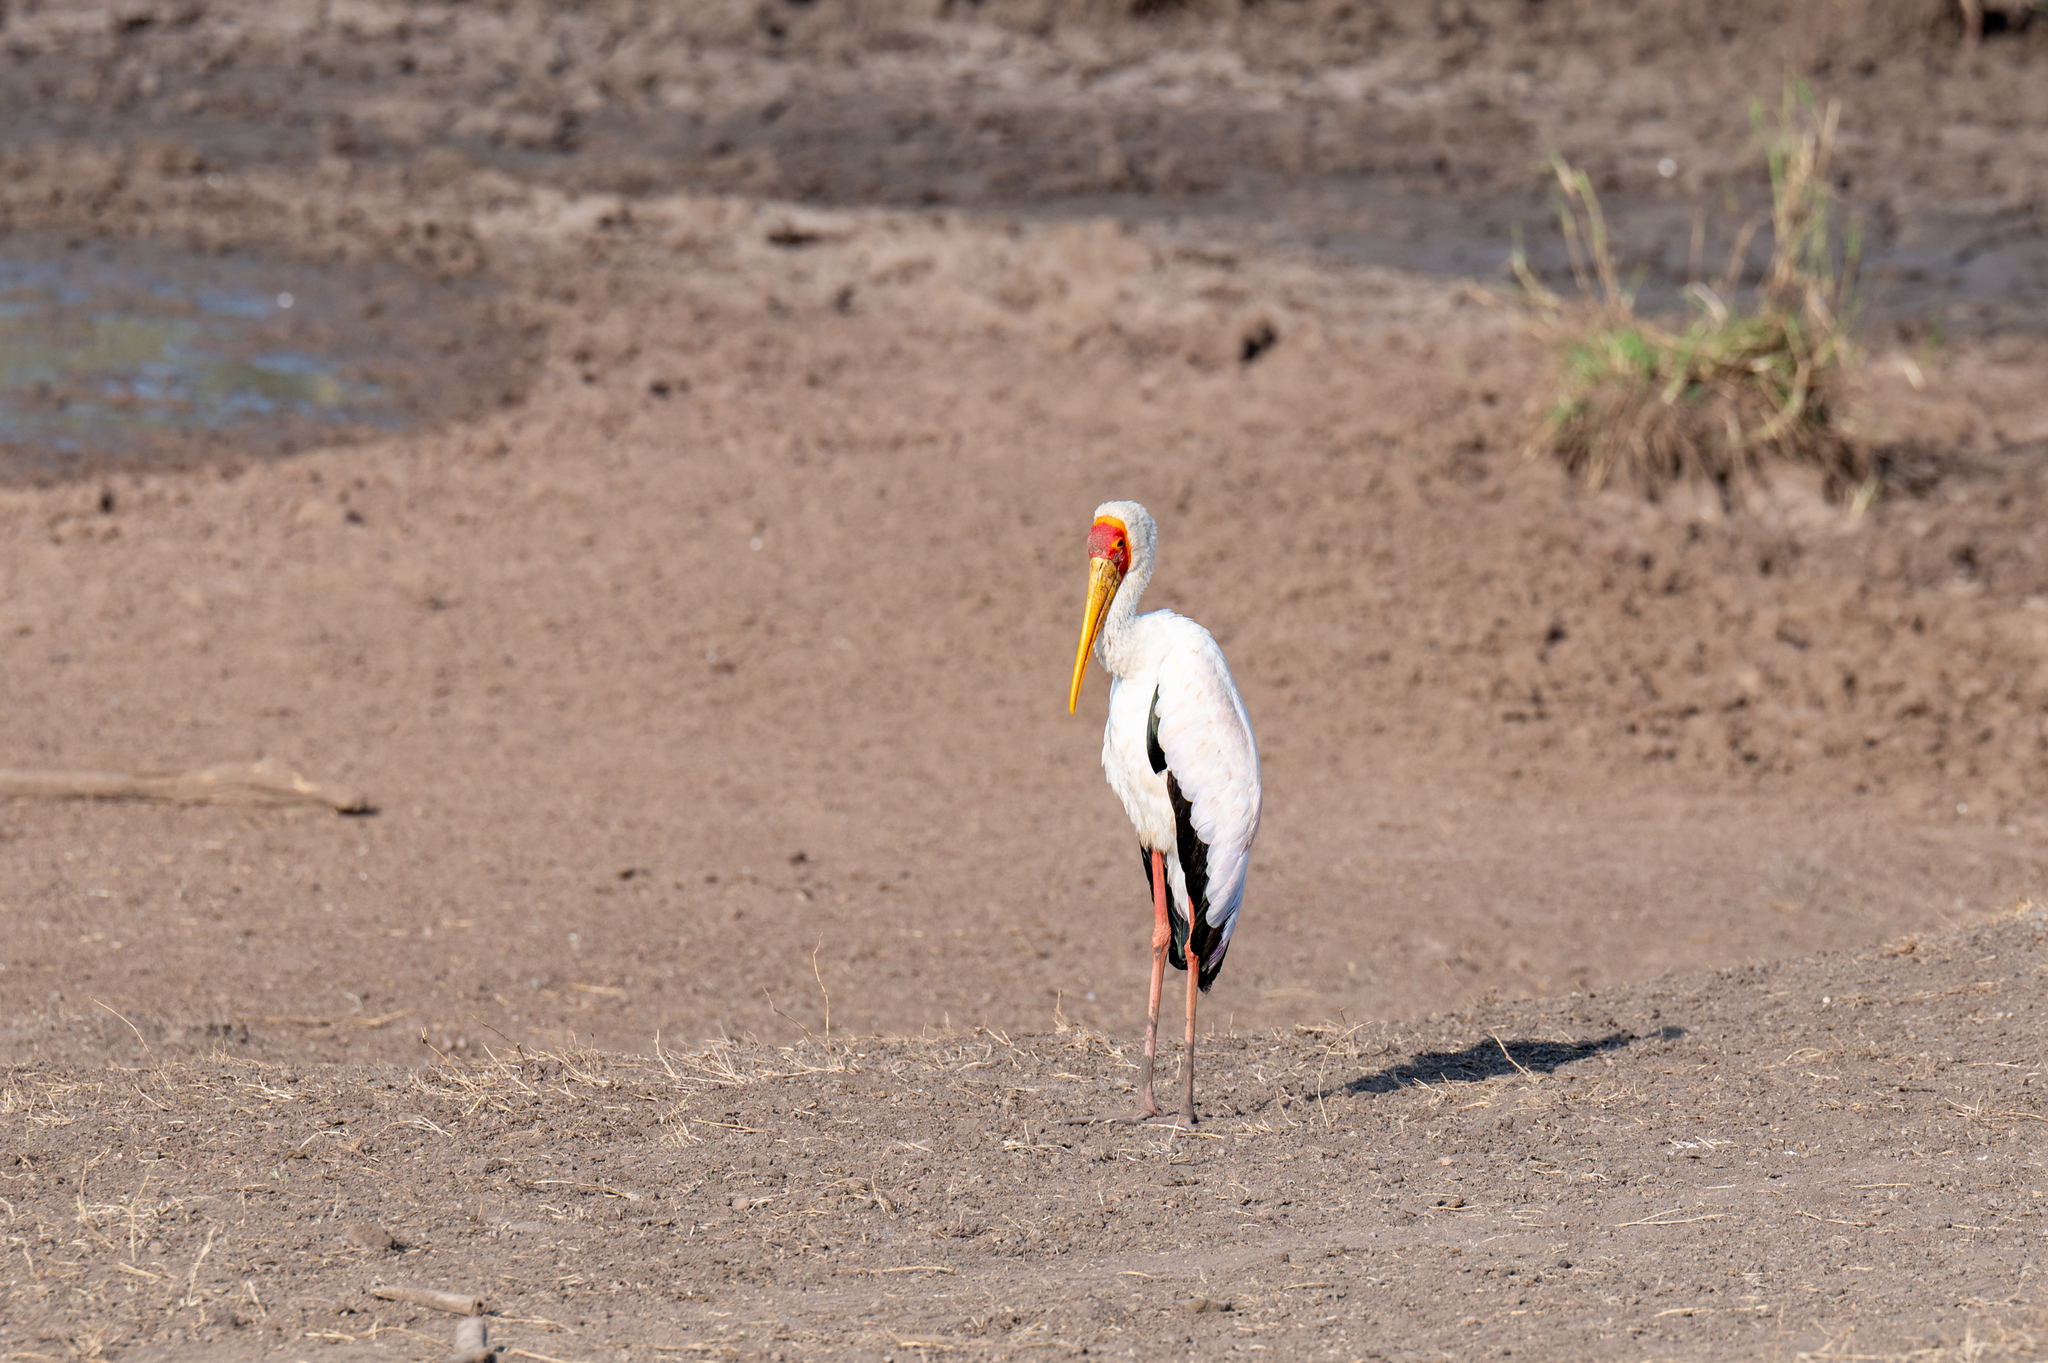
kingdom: Animalia
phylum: Chordata
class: Aves
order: Ciconiiformes
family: Ciconiidae
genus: Mycteria
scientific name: Mycteria ibis
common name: Yellow-billed stork
